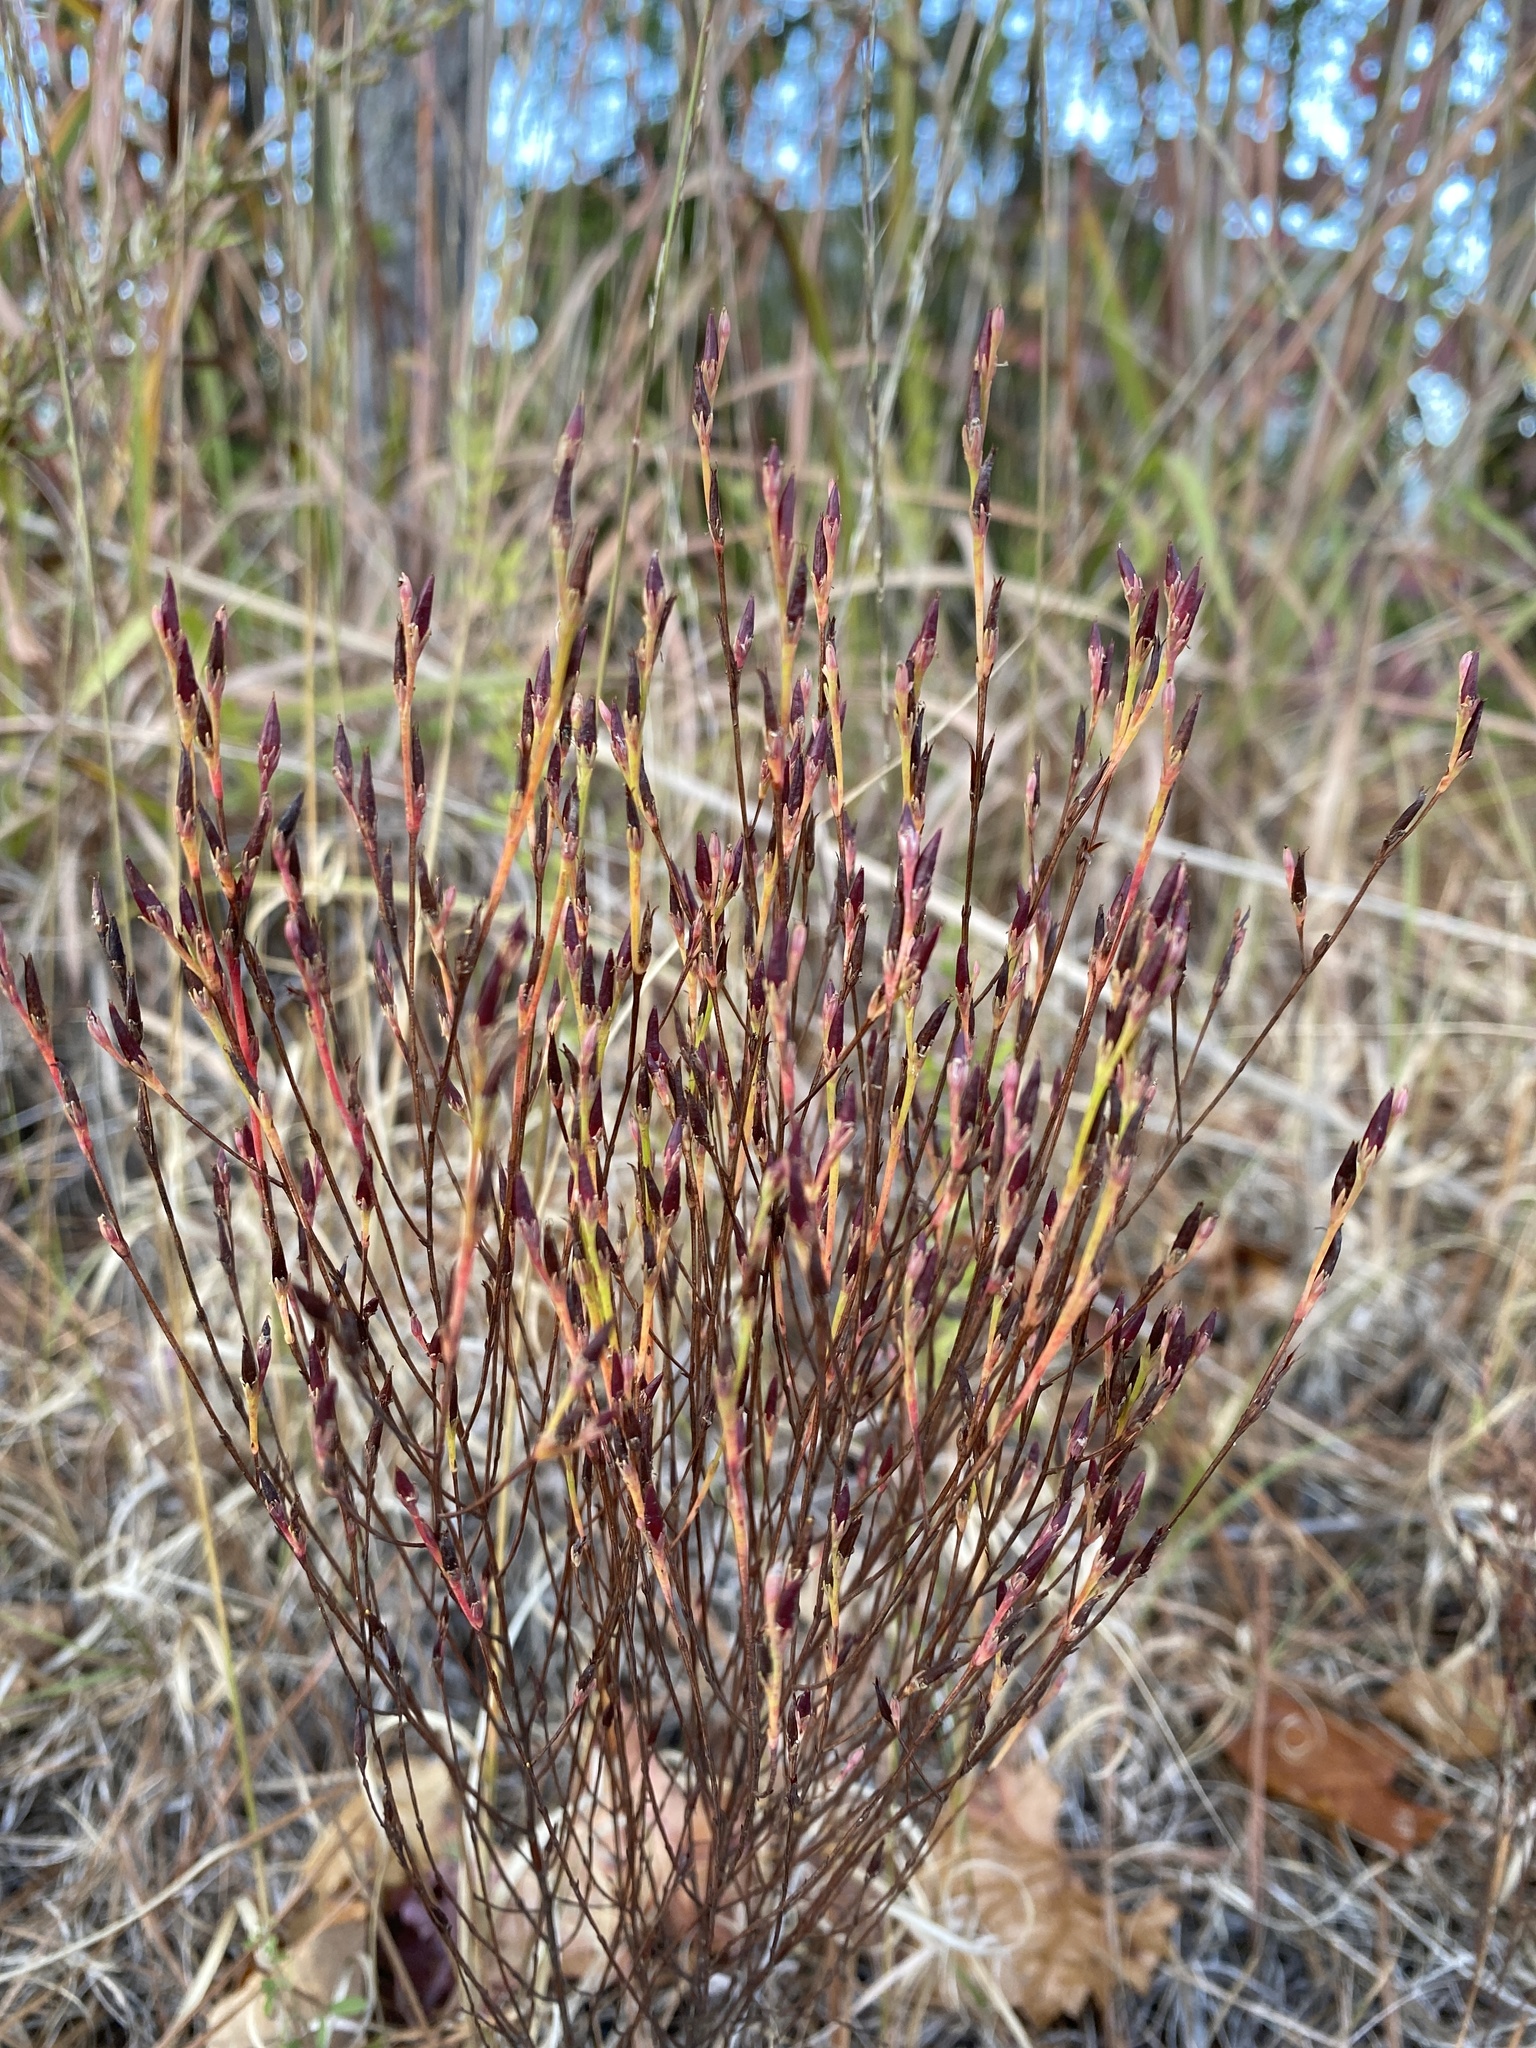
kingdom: Plantae
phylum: Tracheophyta
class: Magnoliopsida
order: Malpighiales
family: Hypericaceae
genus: Hypericum
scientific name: Hypericum gentianoides
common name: Gentian-leaved st. john's-wort
